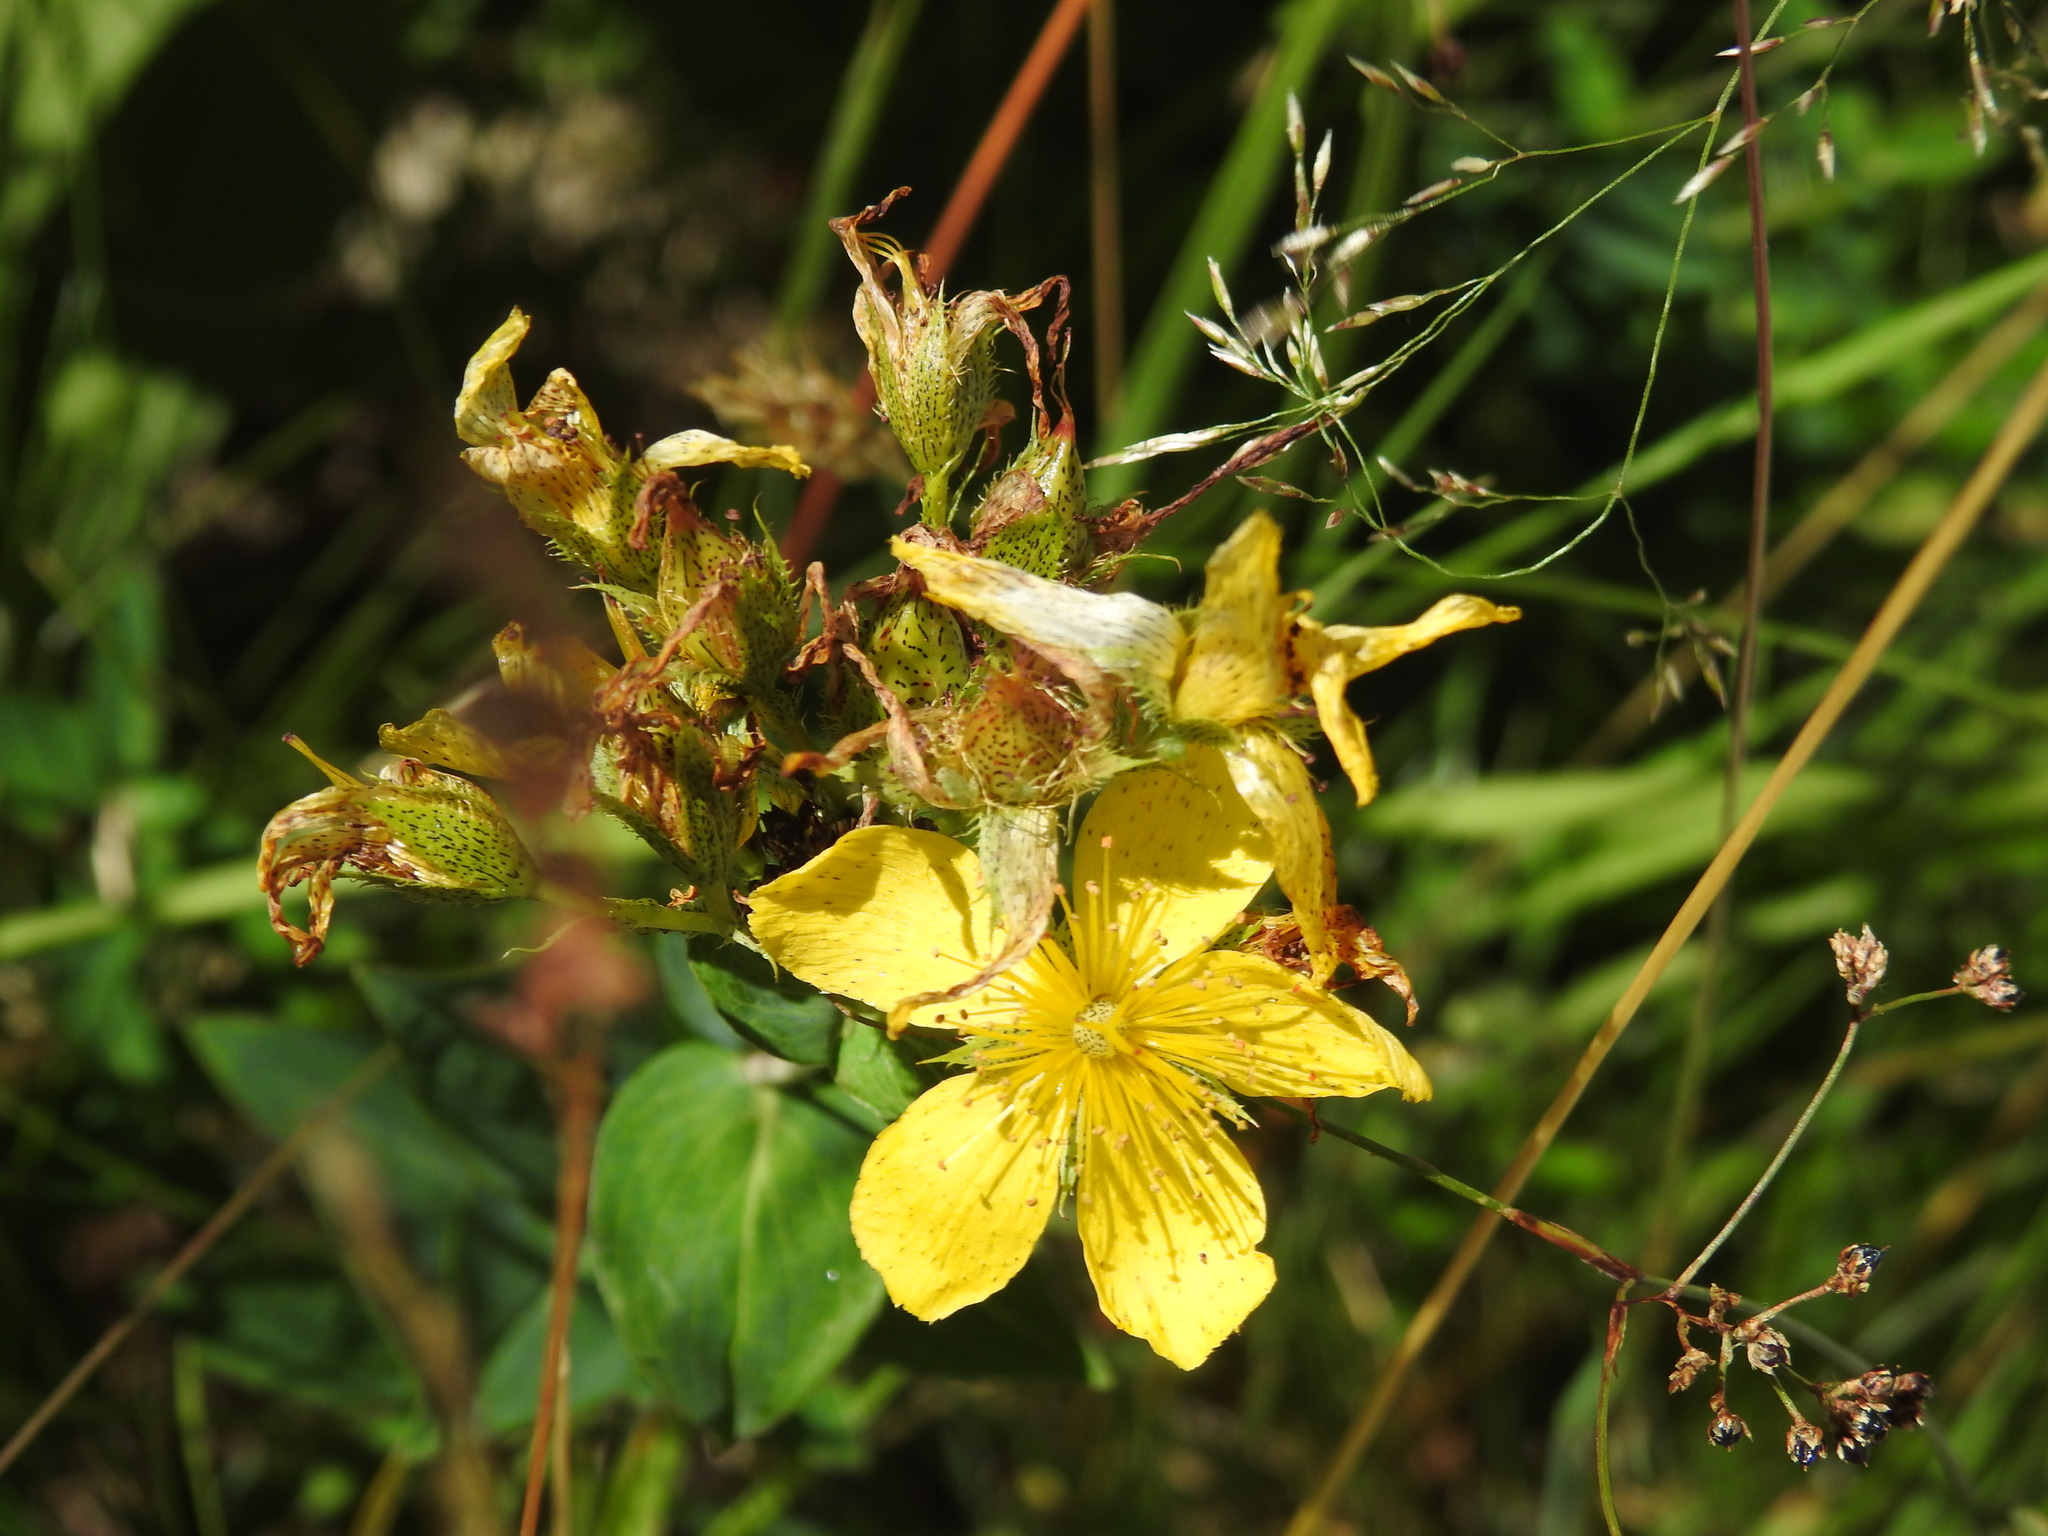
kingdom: Plantae
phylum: Tracheophyta
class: Magnoliopsida
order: Malpighiales
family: Hypericaceae
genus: Hypericum
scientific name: Hypericum richeri
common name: Alpine st john's-wort
